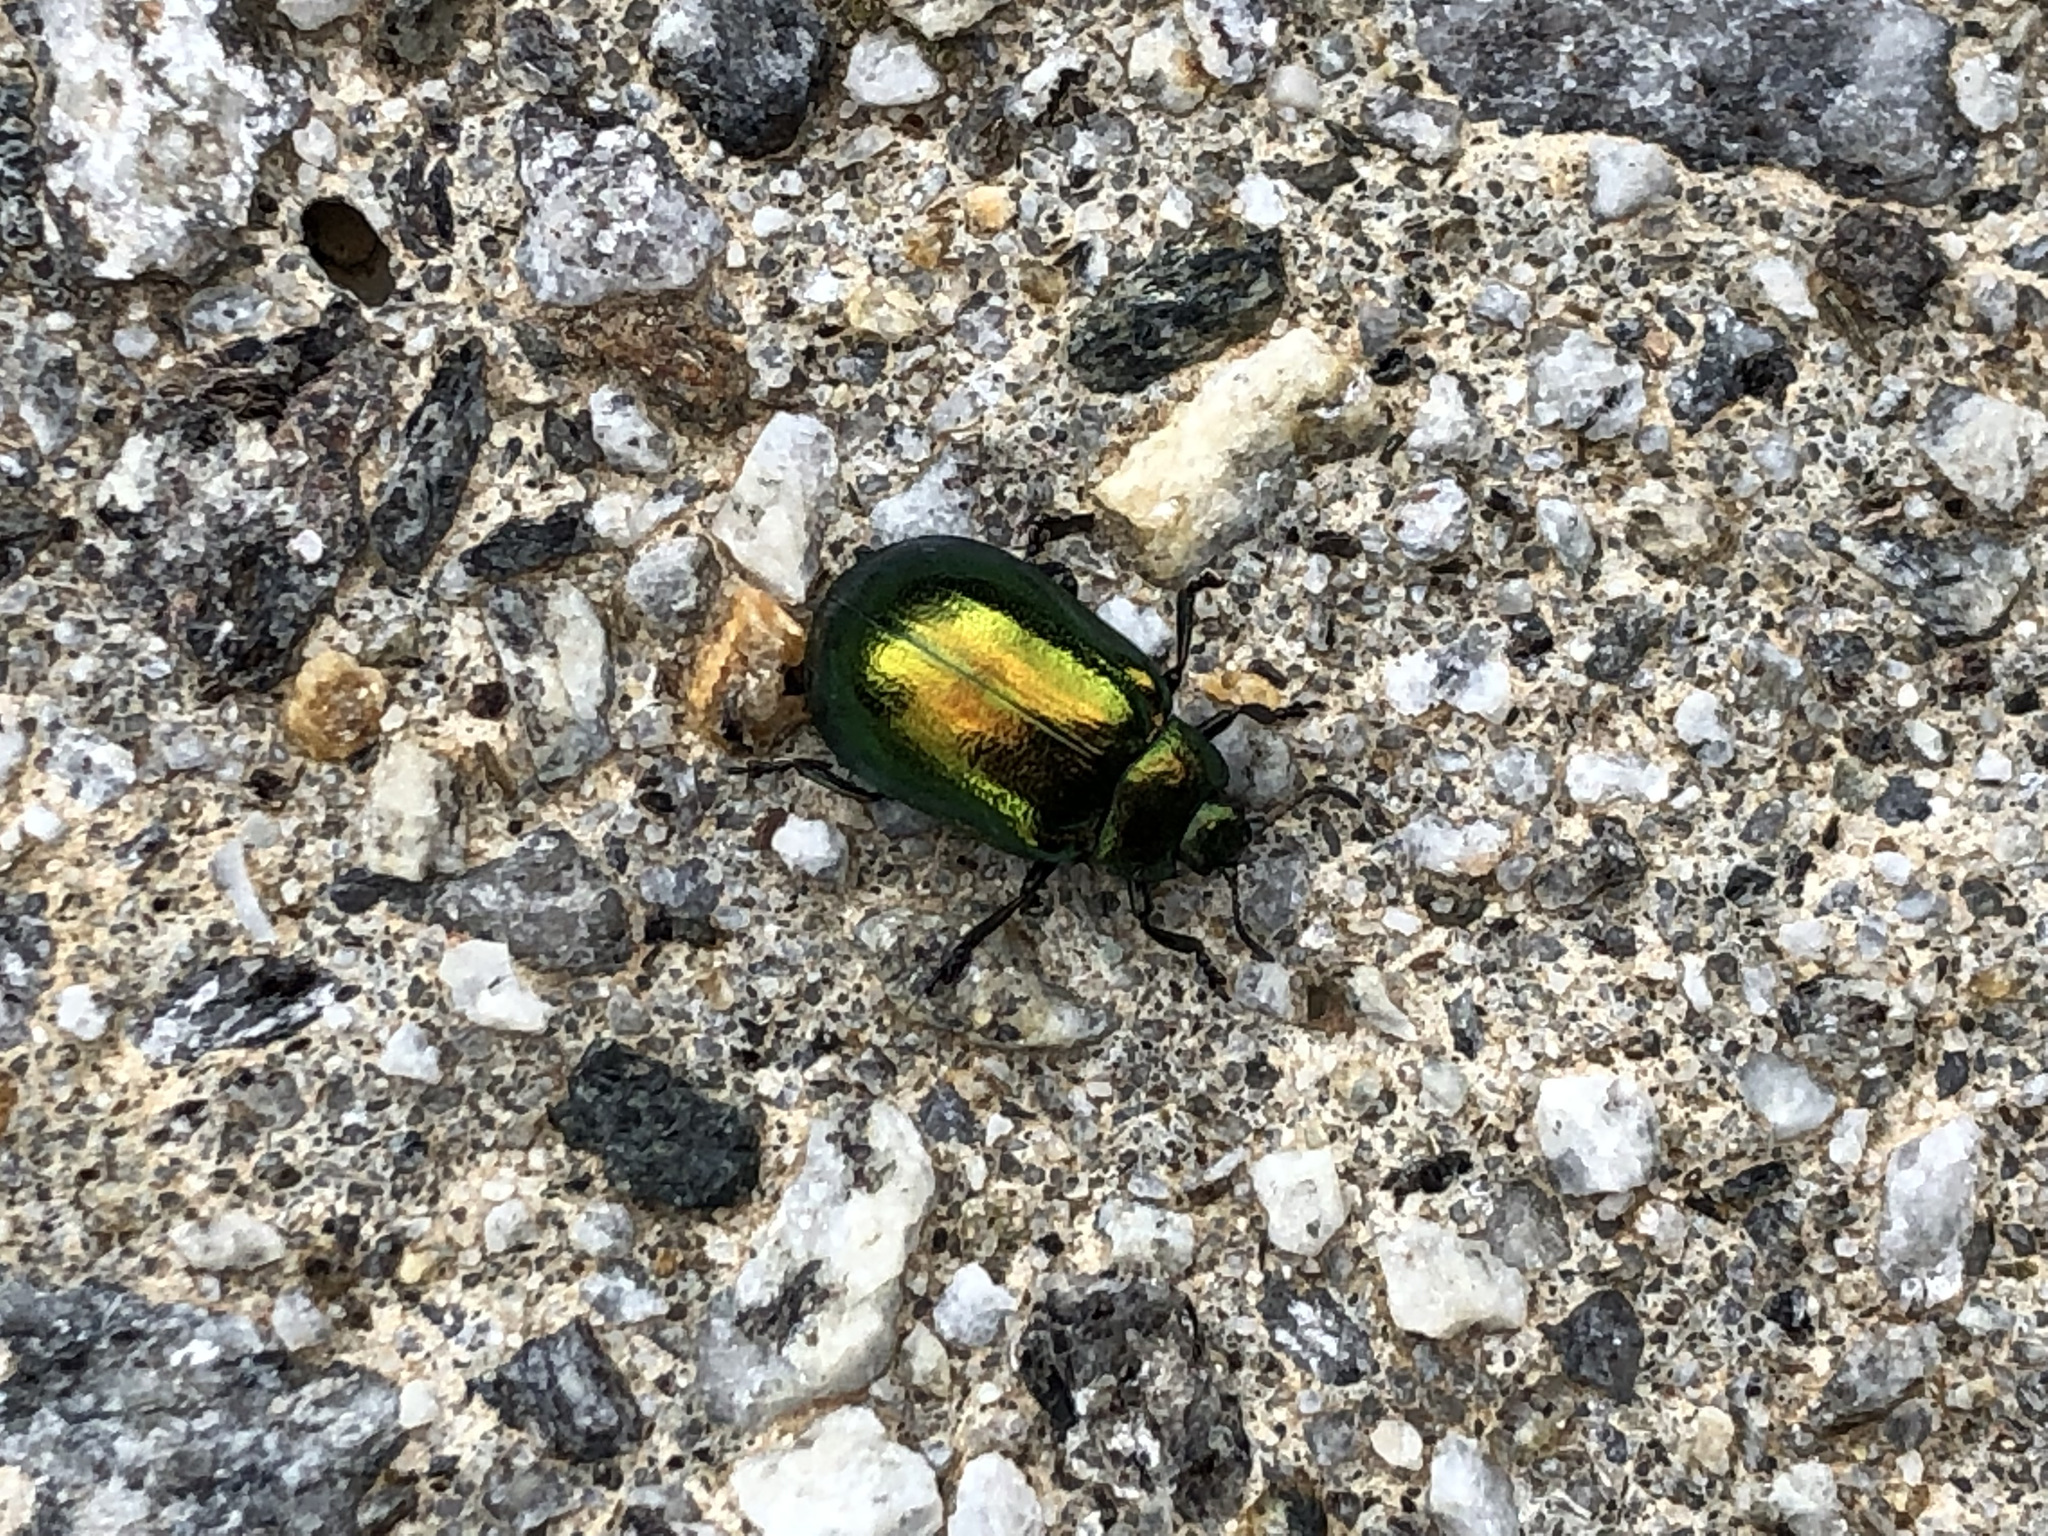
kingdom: Animalia
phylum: Arthropoda
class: Insecta
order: Coleoptera
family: Chrysomelidae
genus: Plagiosterna
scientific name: Plagiosterna aenea
